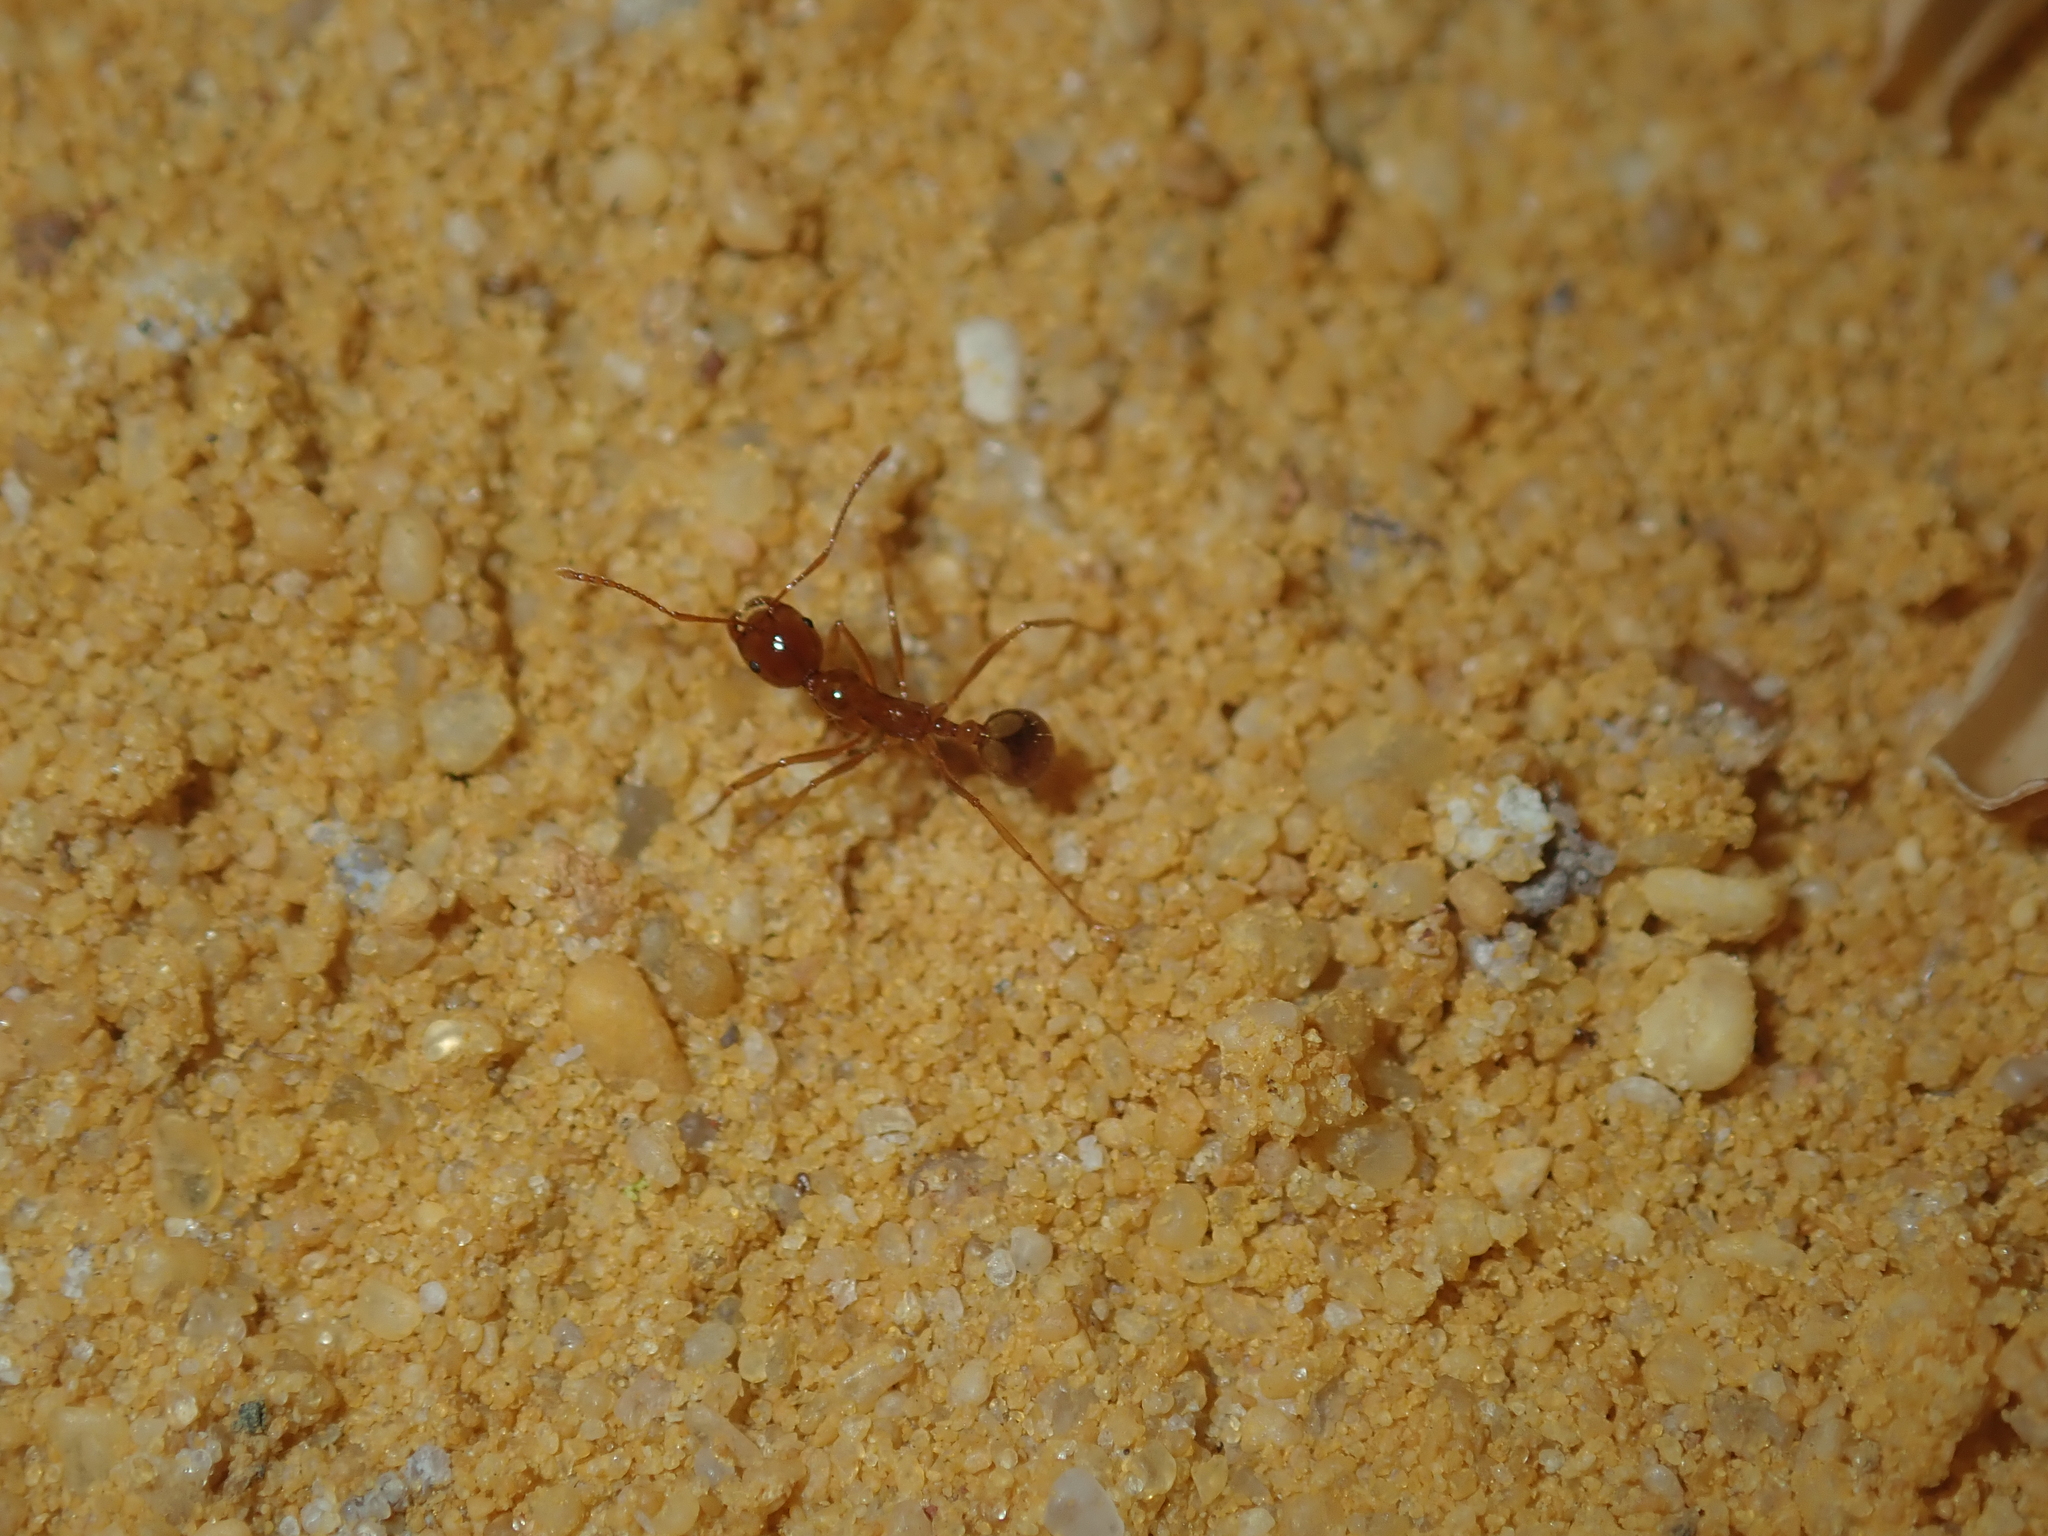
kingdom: Animalia
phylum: Arthropoda
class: Insecta
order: Hymenoptera
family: Formicidae
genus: Aphaenogaster
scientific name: Aphaenogaster poultoni
